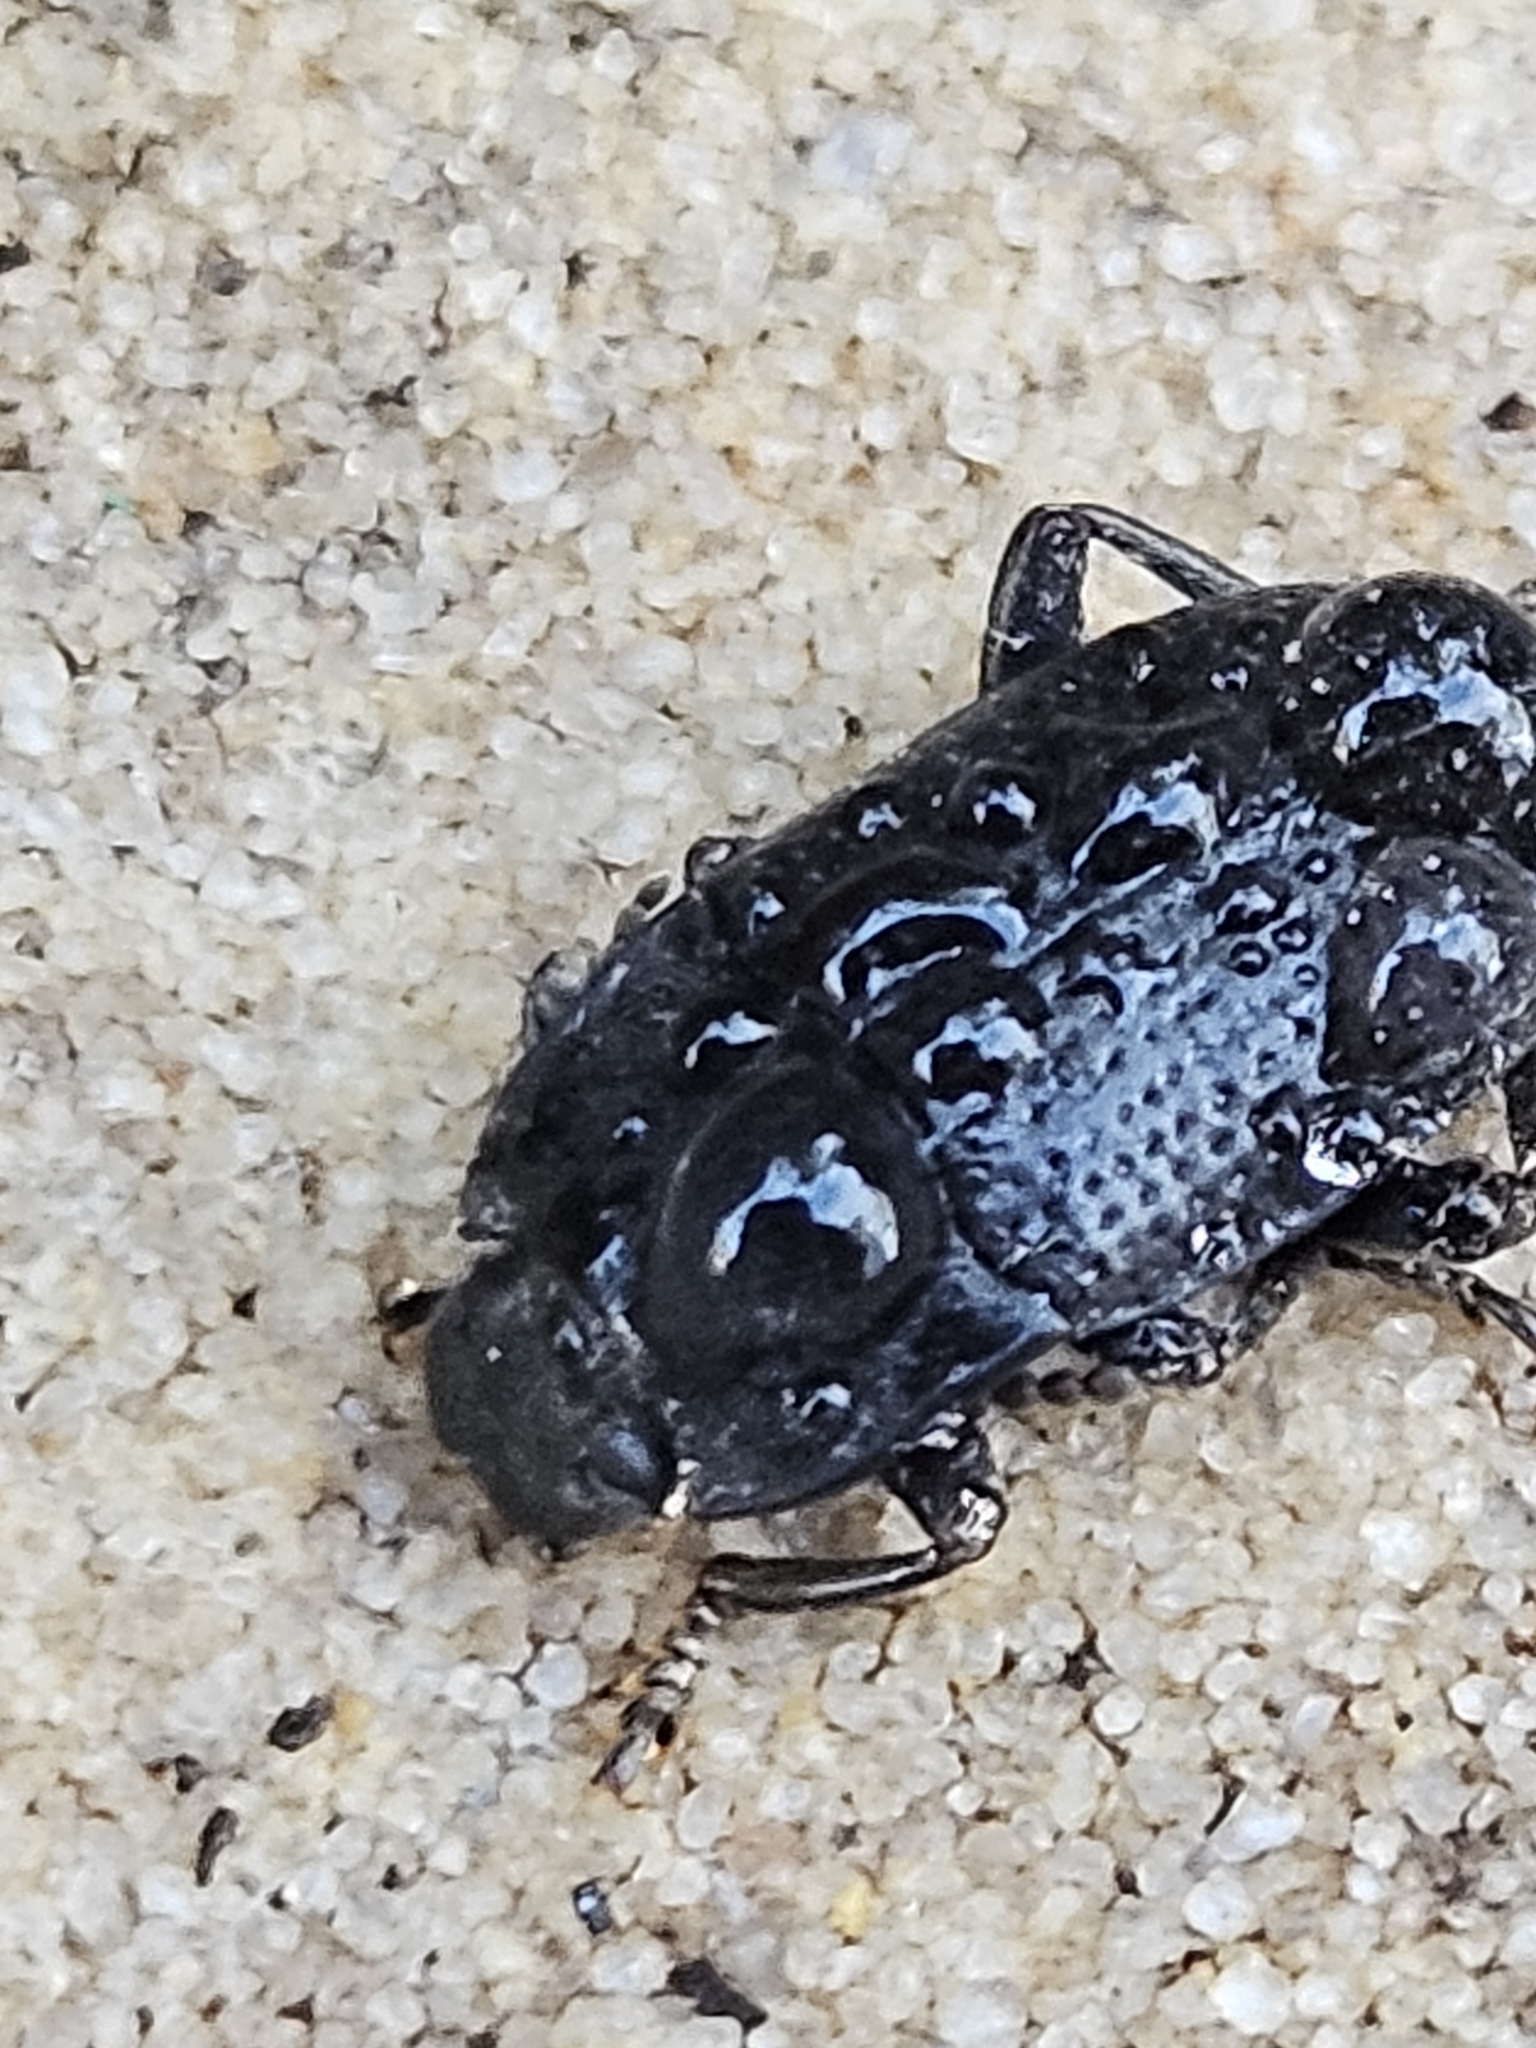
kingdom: Animalia
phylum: Arthropoda
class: Insecta
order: Coleoptera
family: Tenebrionidae
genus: Asiopus
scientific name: Asiopus
